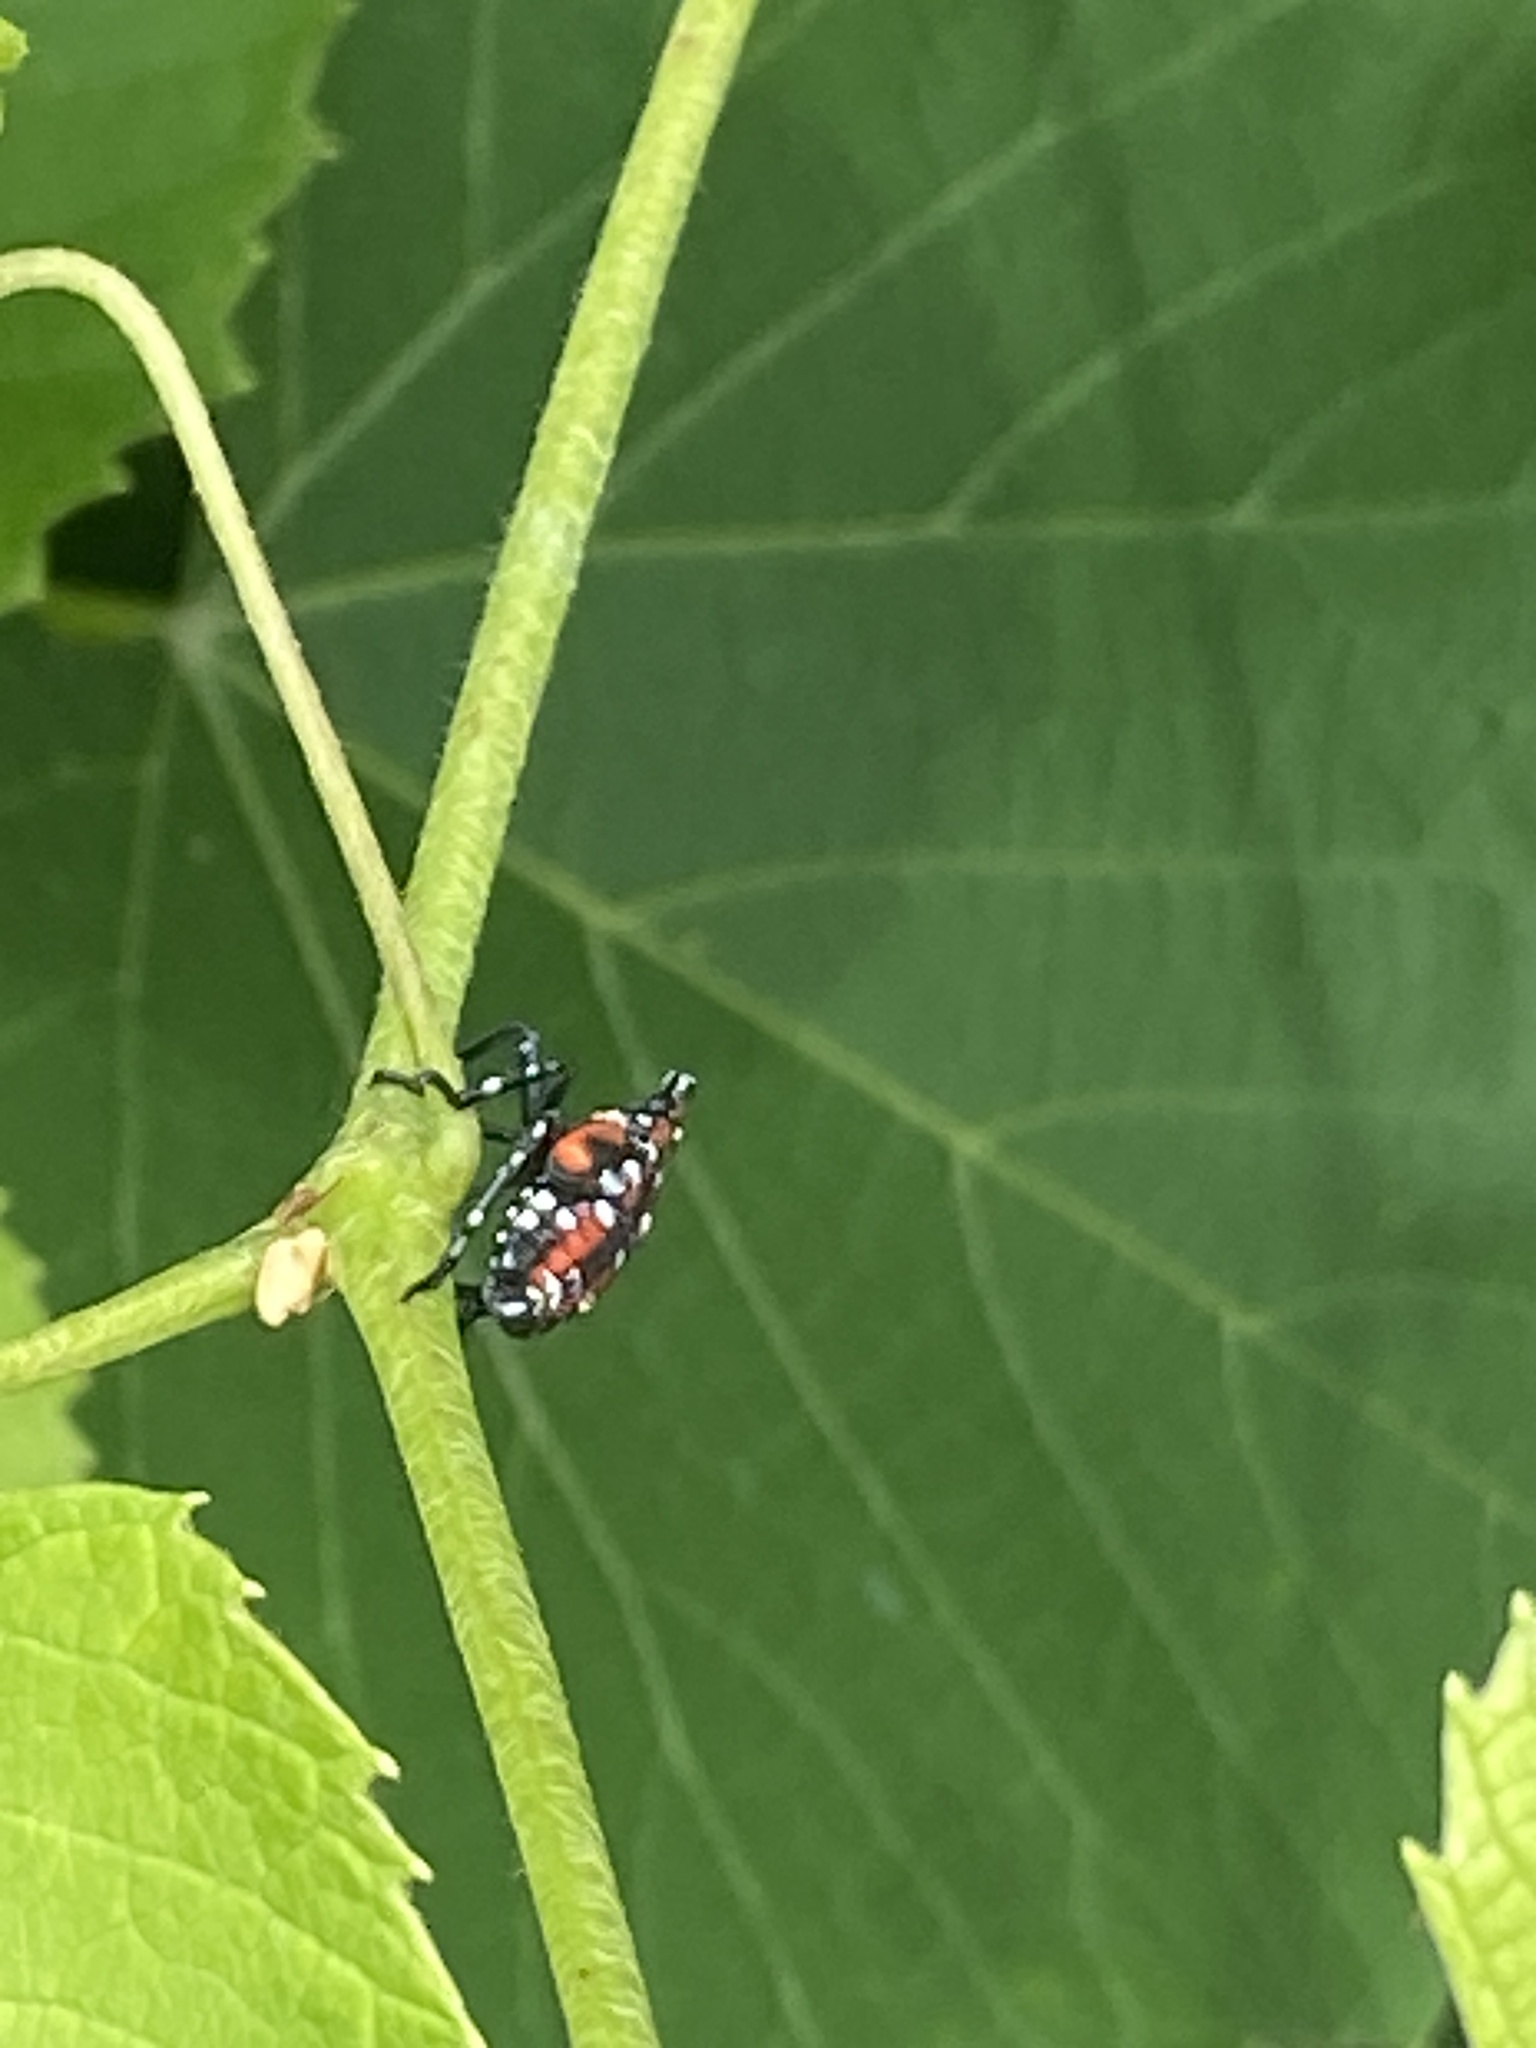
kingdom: Animalia
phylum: Arthropoda
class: Insecta
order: Hemiptera
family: Fulgoridae
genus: Lycorma
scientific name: Lycorma delicatula
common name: Spotted lanternfly
